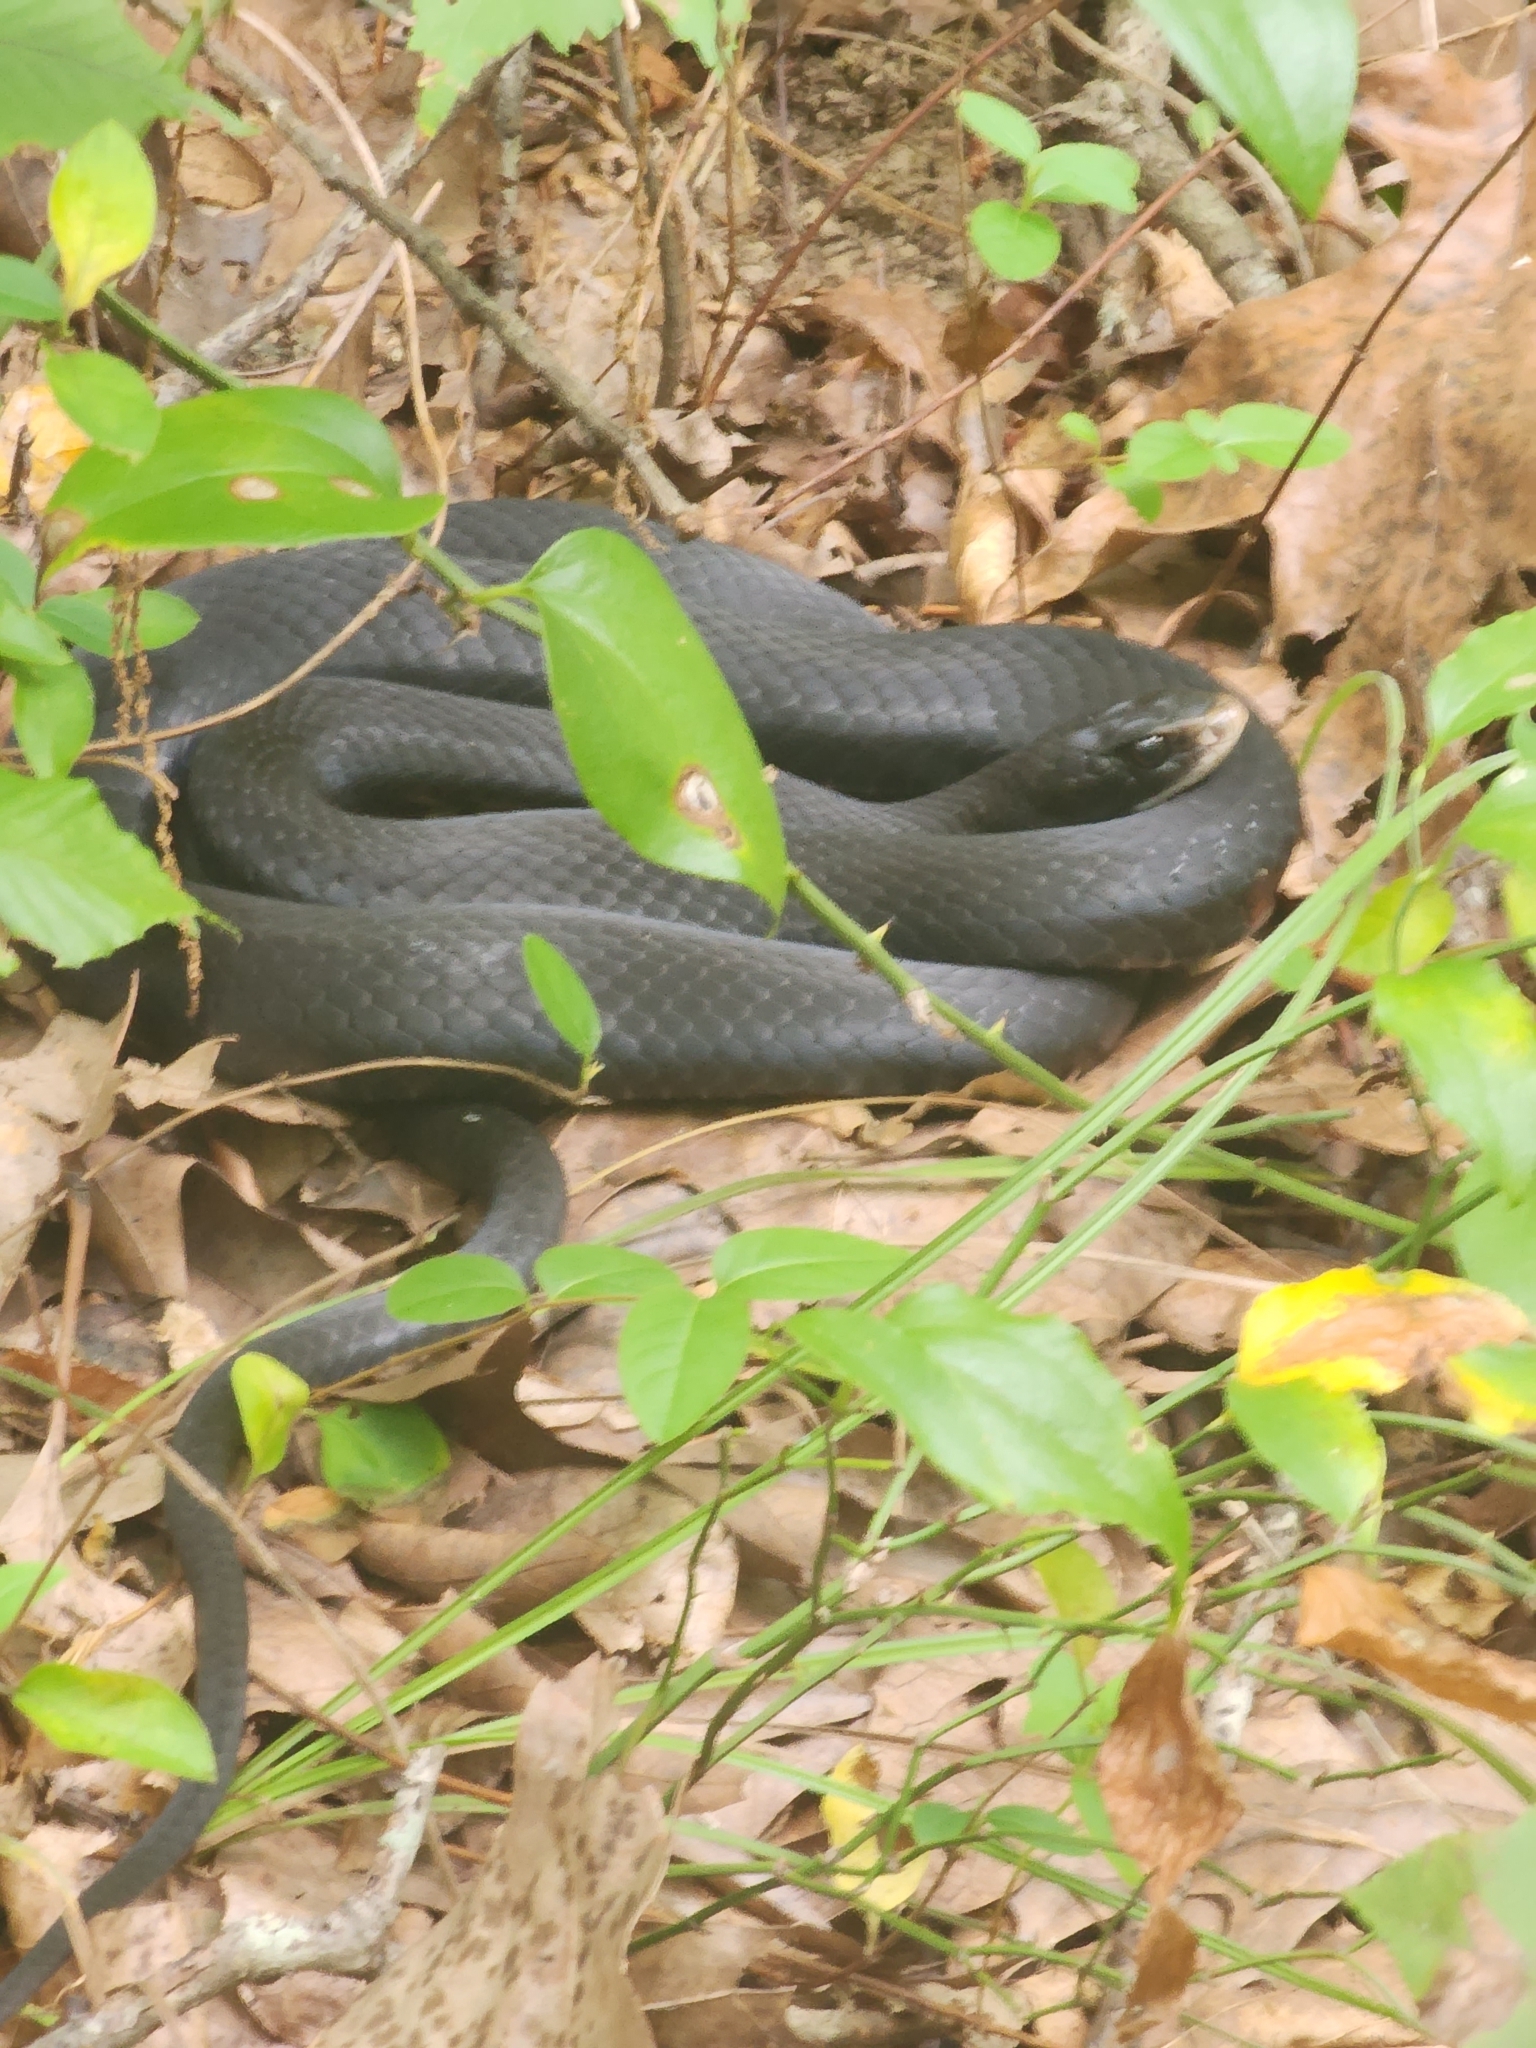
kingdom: Animalia
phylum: Chordata
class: Squamata
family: Colubridae
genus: Coluber
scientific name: Coluber constrictor
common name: Eastern racer
